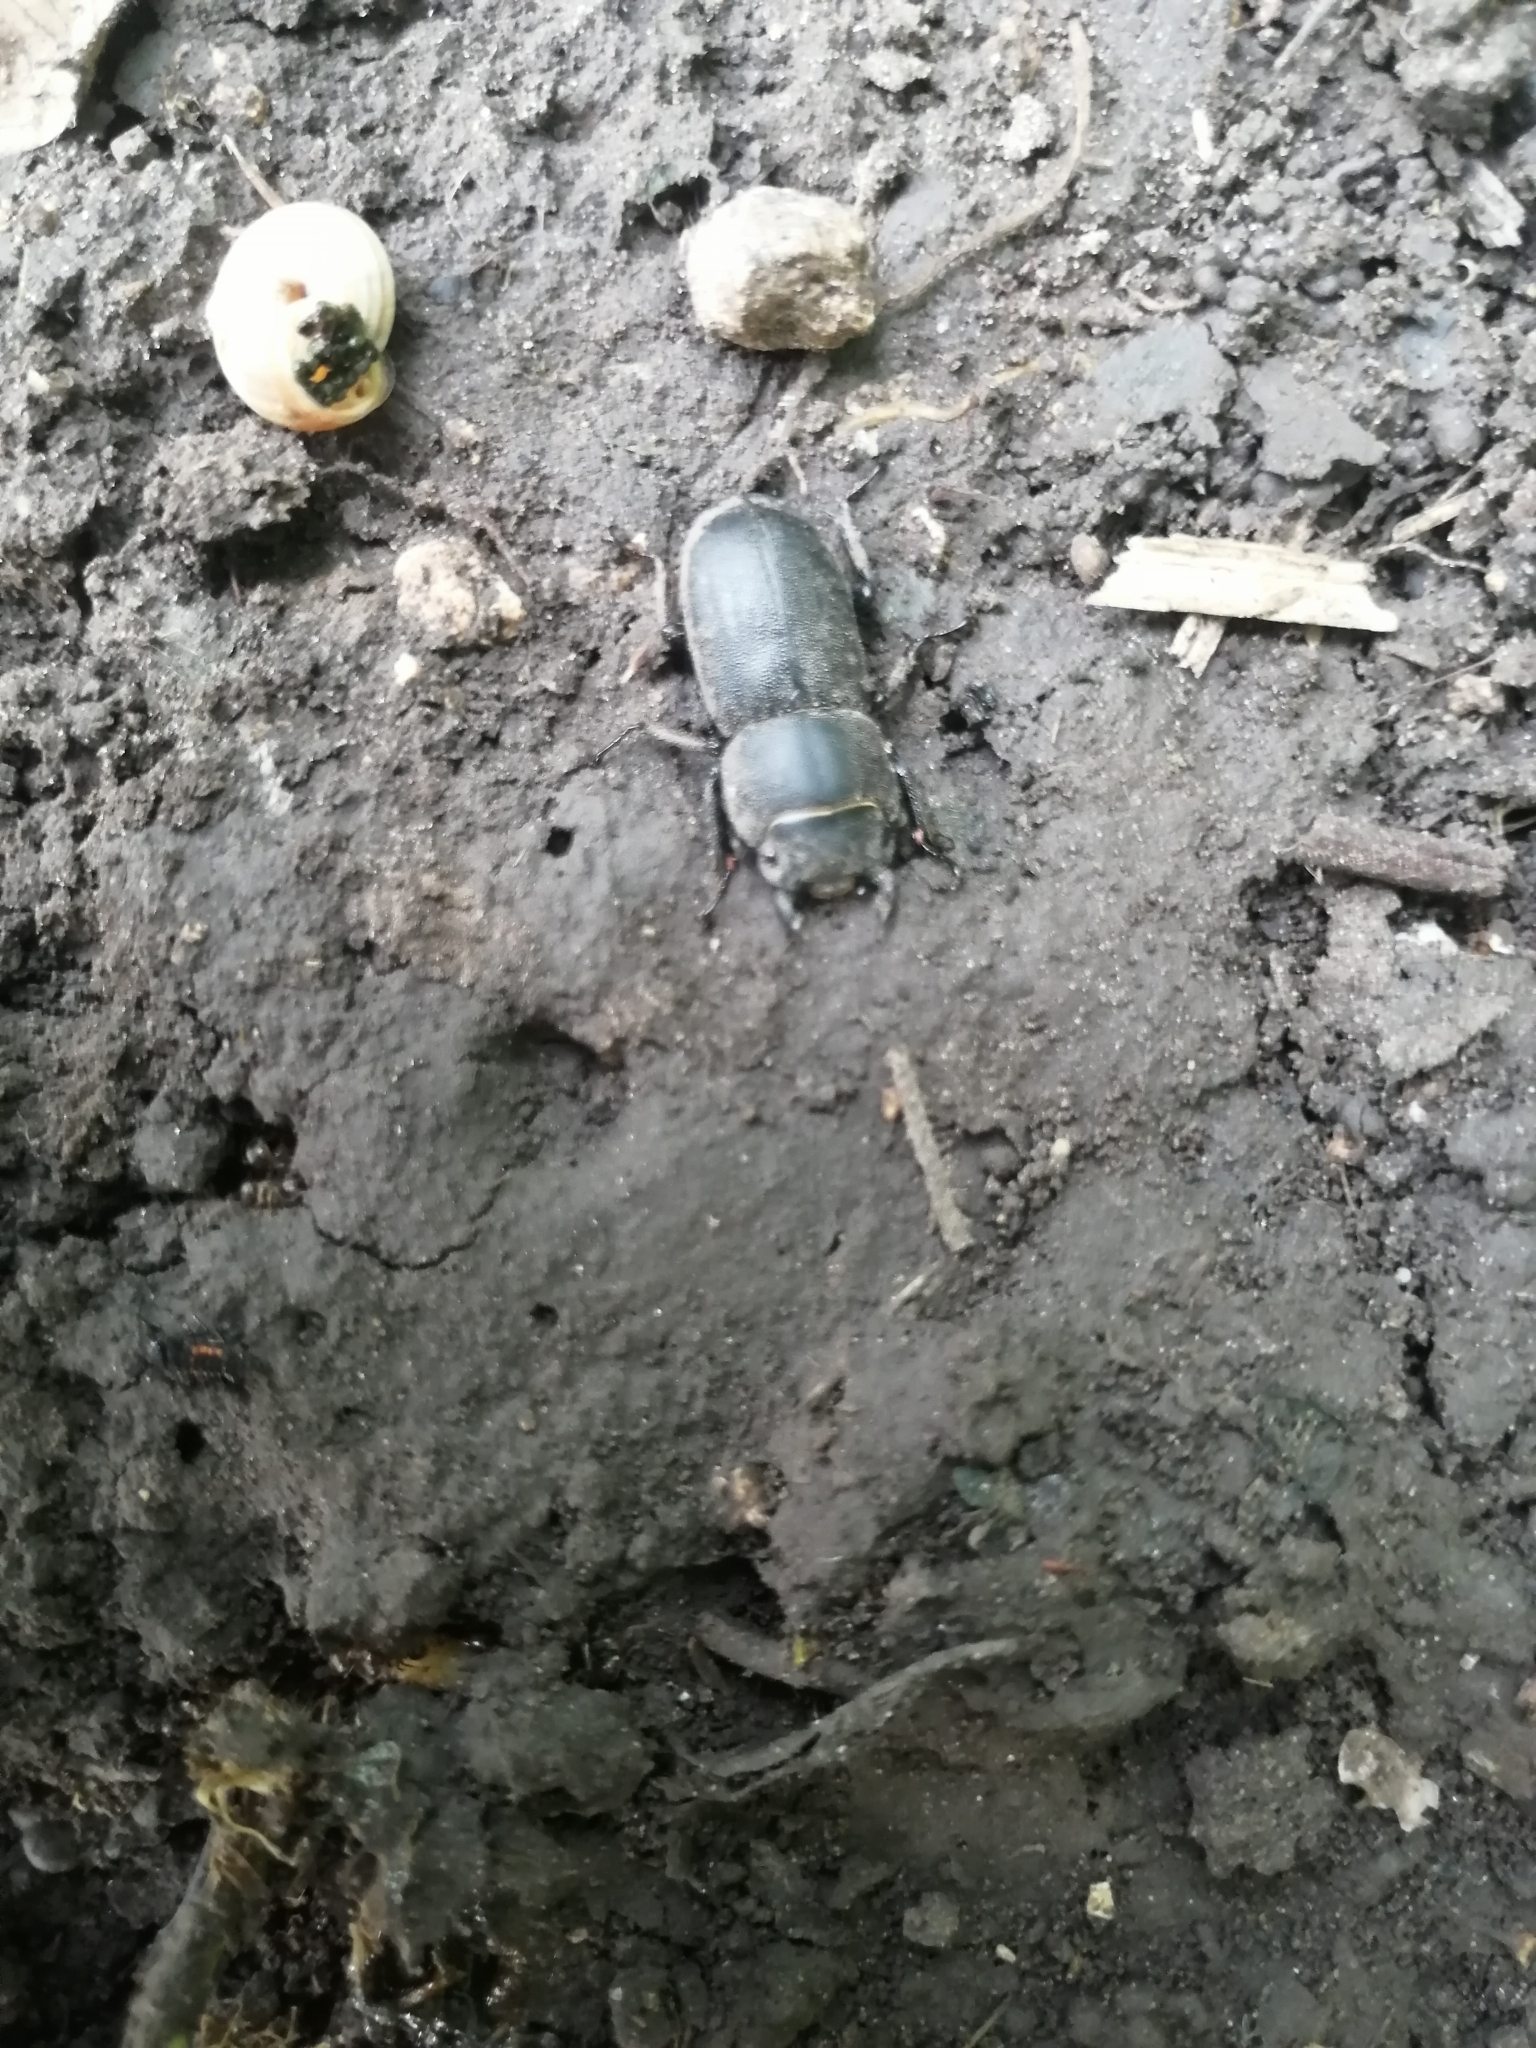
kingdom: Animalia
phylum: Arthropoda
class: Insecta
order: Coleoptera
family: Lucanidae
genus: Dorcus
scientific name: Dorcus parallelipipedus
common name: Lesser stag beetle
